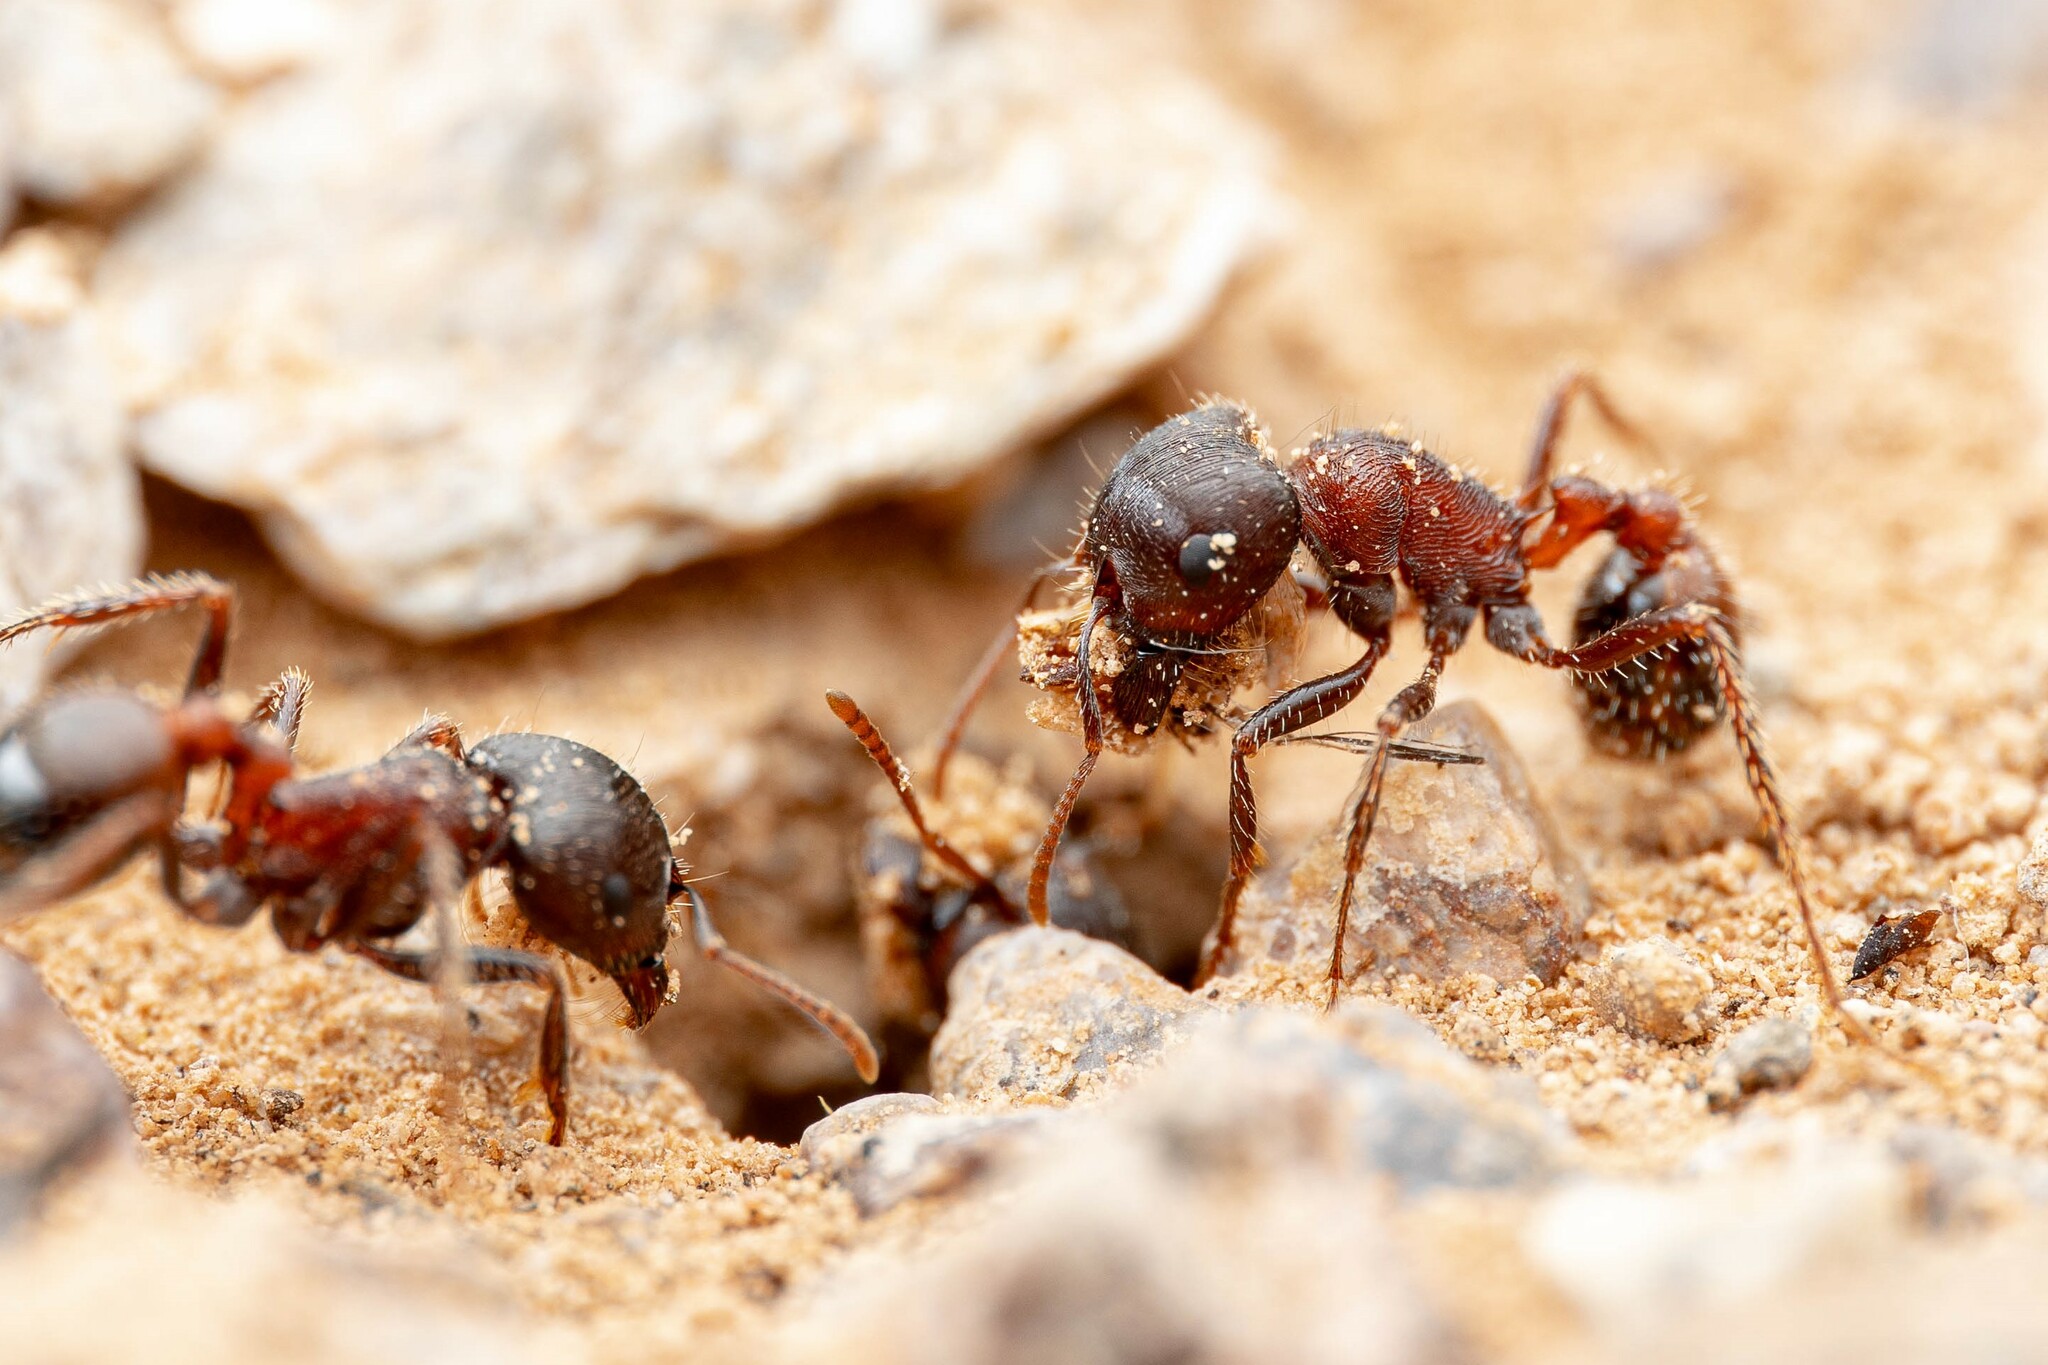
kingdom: Animalia
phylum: Arthropoda
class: Insecta
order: Hymenoptera
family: Formicidae
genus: Pogonomyrmex
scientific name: Pogonomyrmex rugosus
